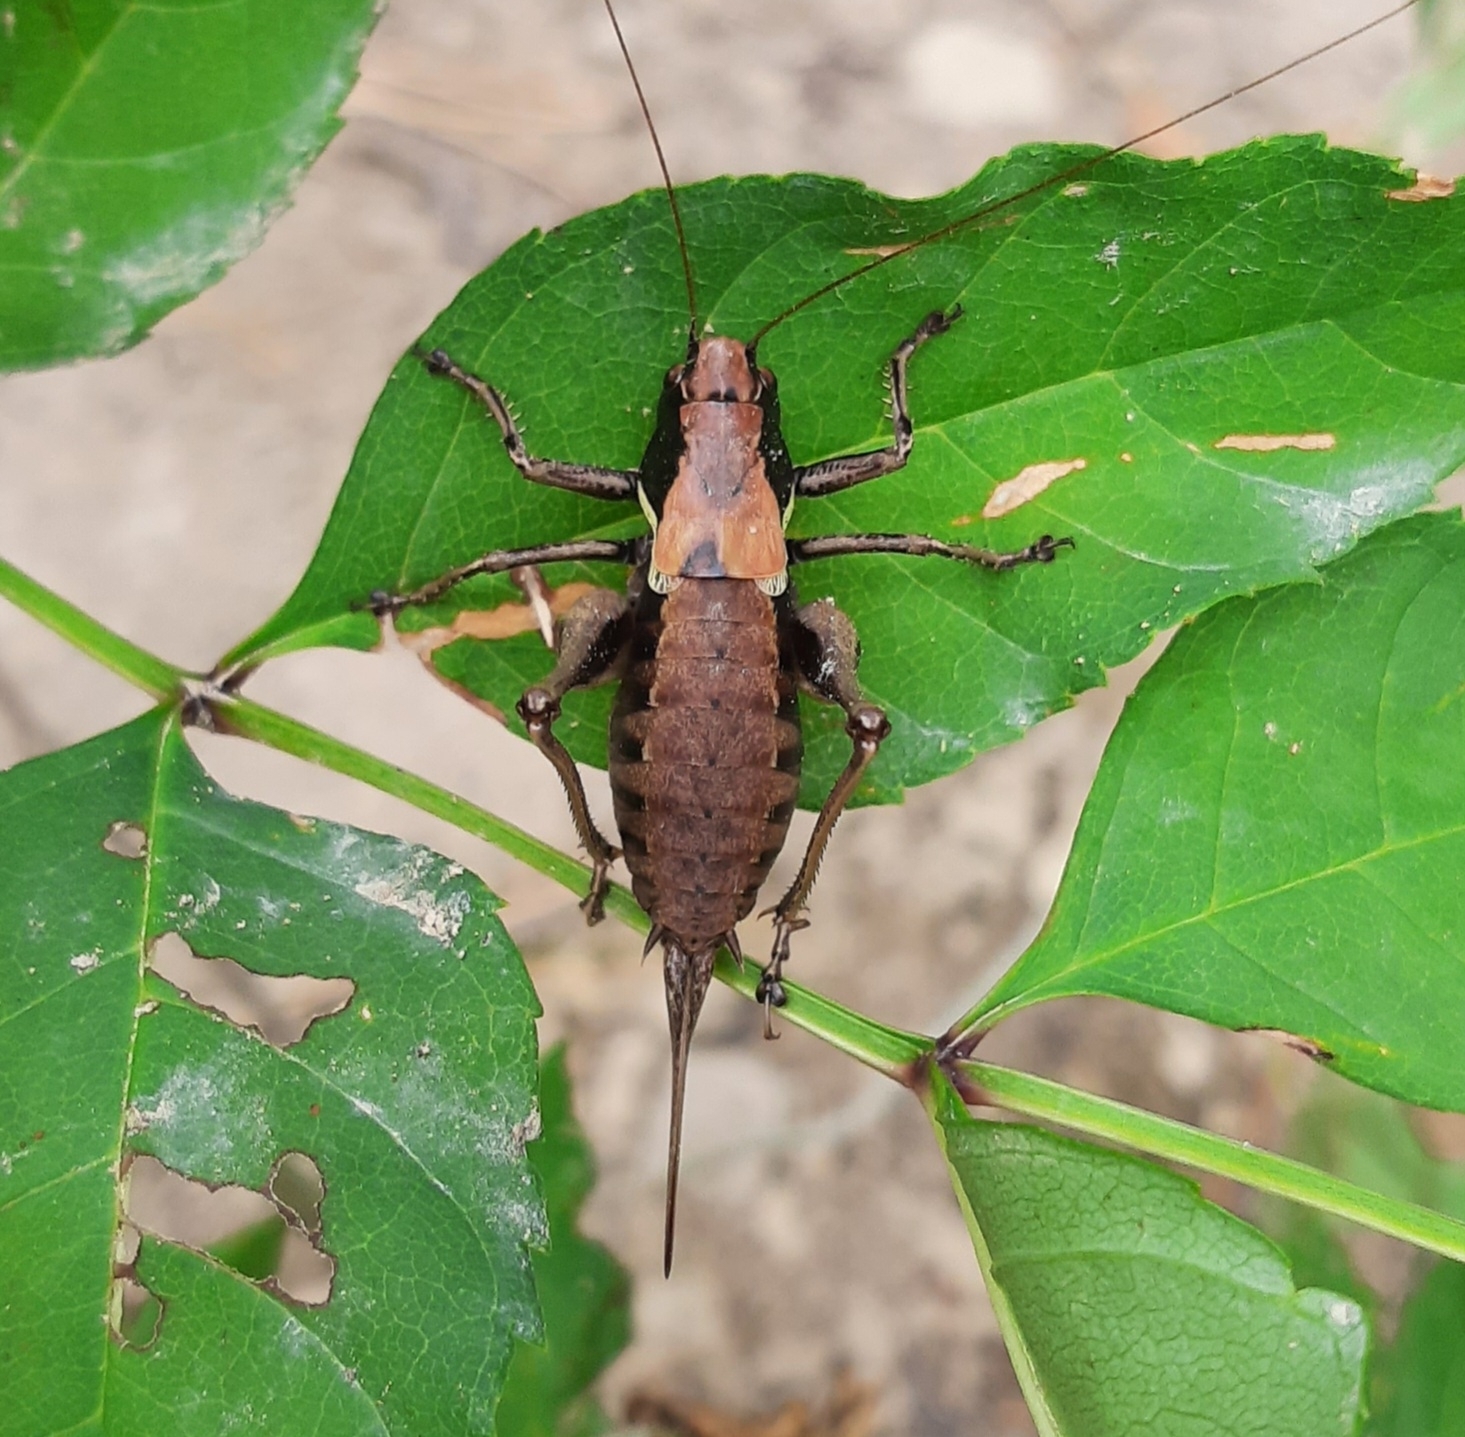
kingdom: Animalia
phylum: Arthropoda
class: Insecta
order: Orthoptera
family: Tettigoniidae
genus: Pholidoptera
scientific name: Pholidoptera aptera
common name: Alpine dark bush-cricket
